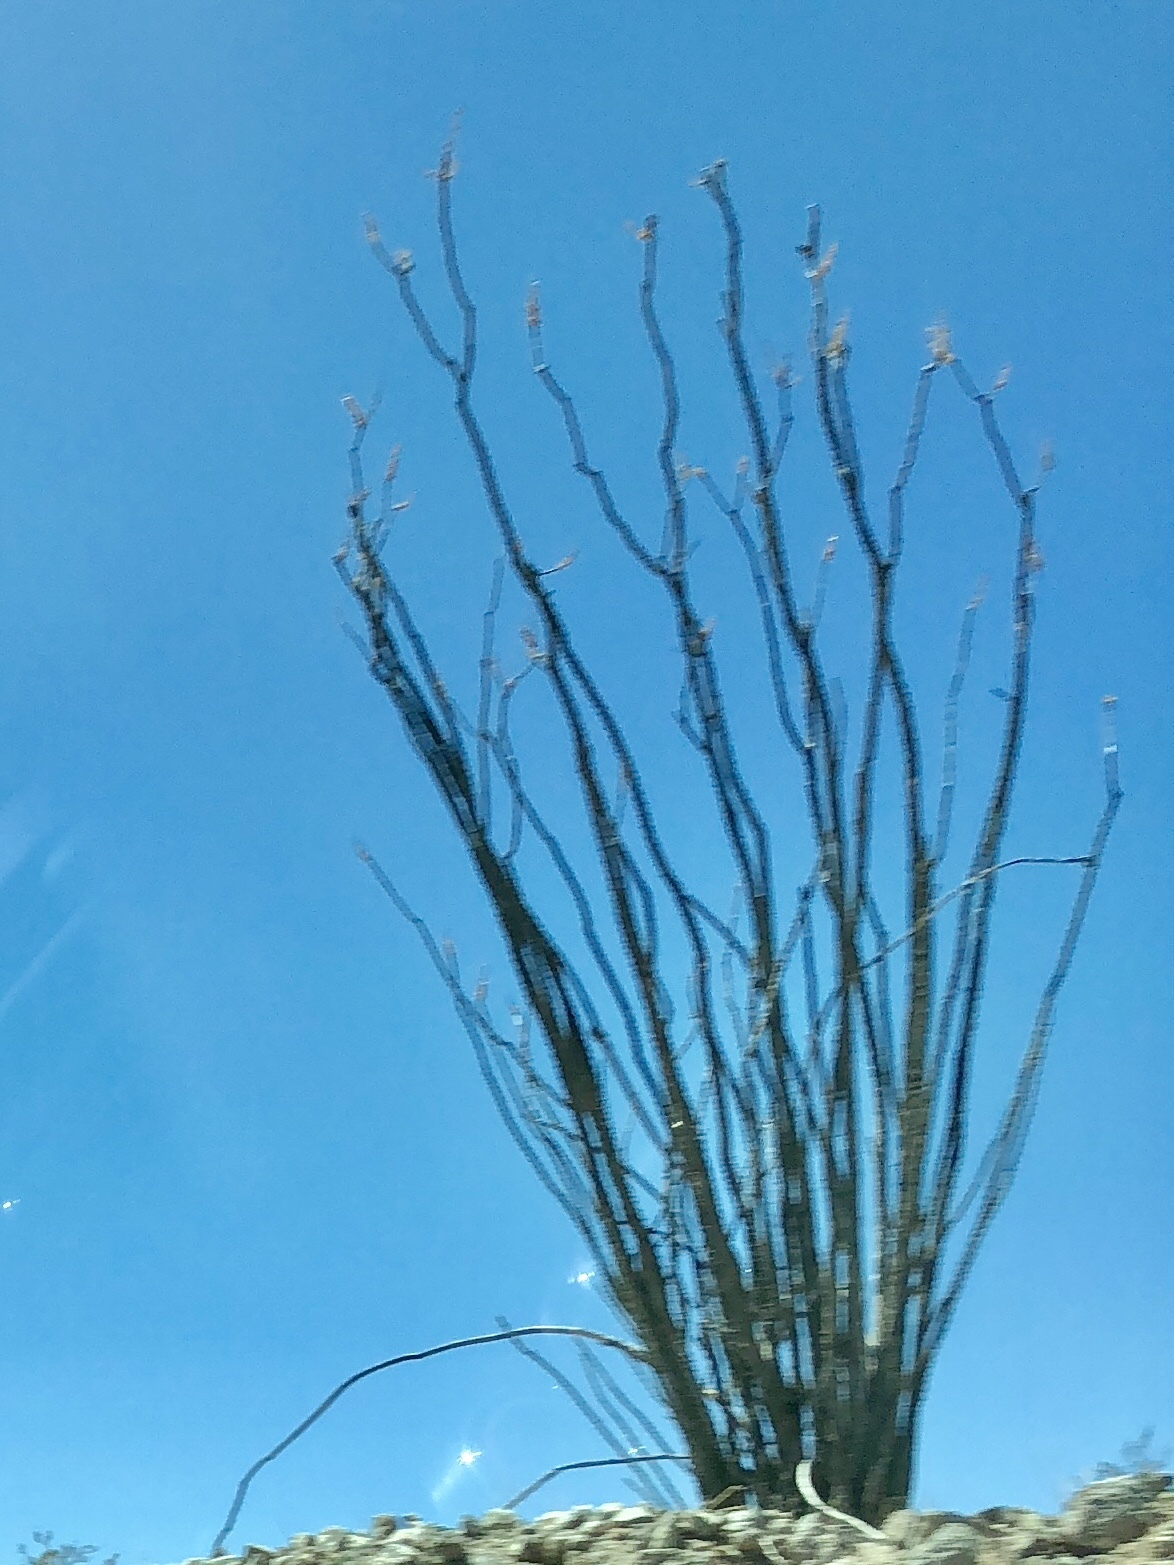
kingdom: Plantae
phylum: Tracheophyta
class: Magnoliopsida
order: Ericales
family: Fouquieriaceae
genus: Fouquieria
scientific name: Fouquieria splendens
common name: Vine-cactus
